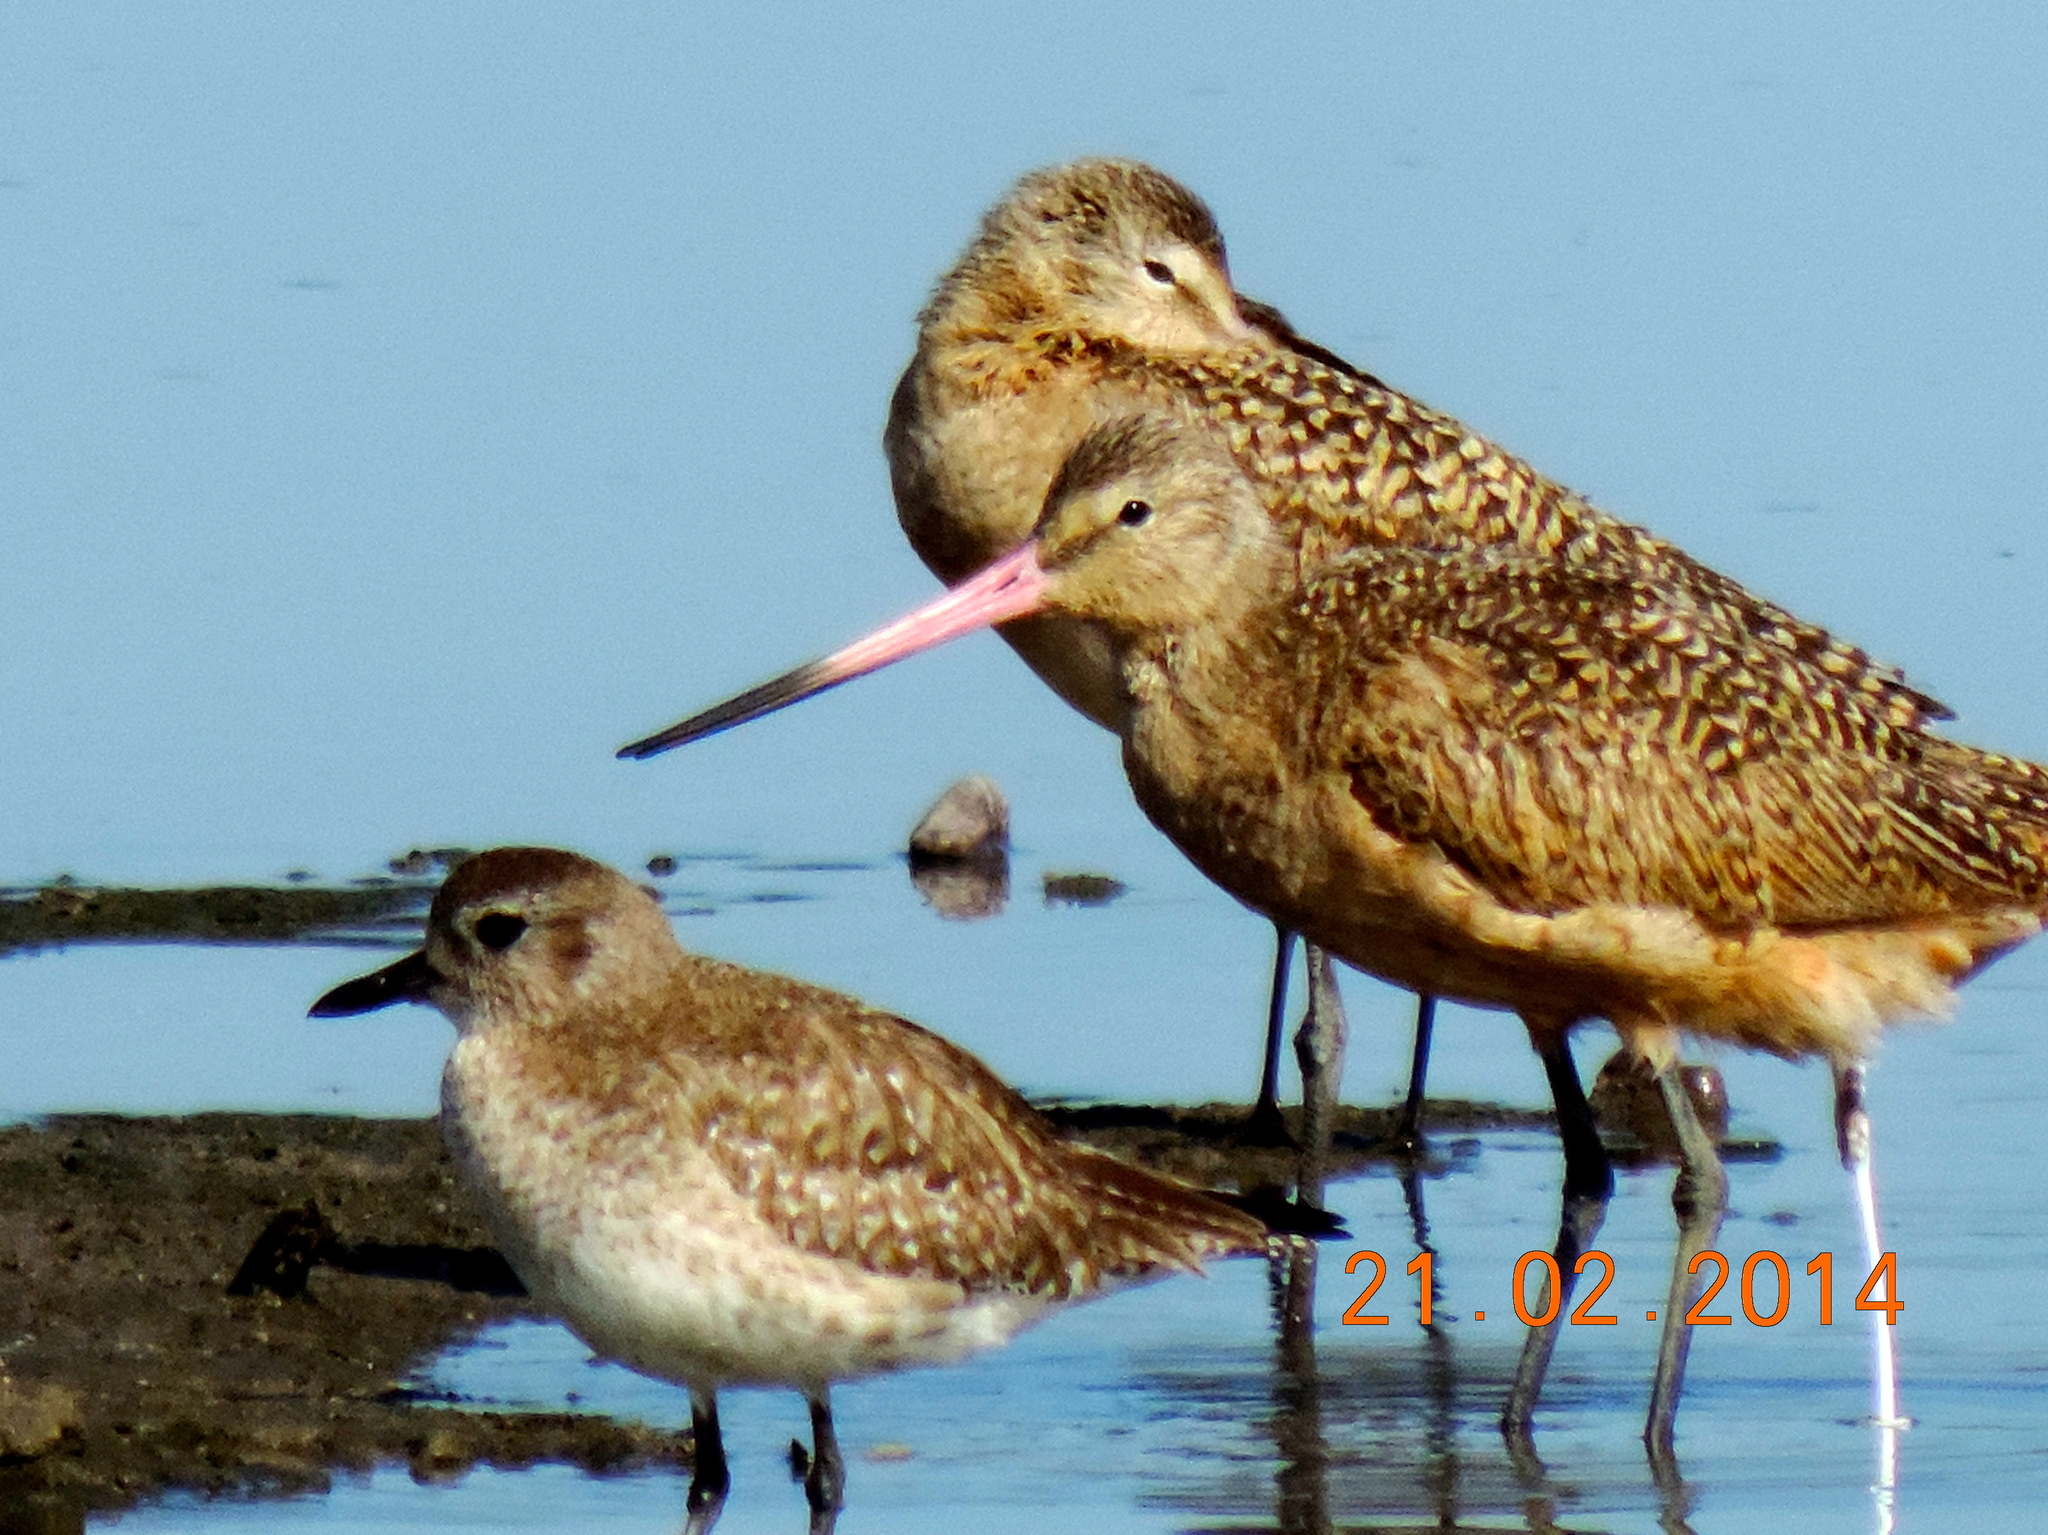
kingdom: Animalia
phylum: Chordata
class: Aves
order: Charadriiformes
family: Scolopacidae
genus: Limosa
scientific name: Limosa fedoa
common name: Marbled godwit
